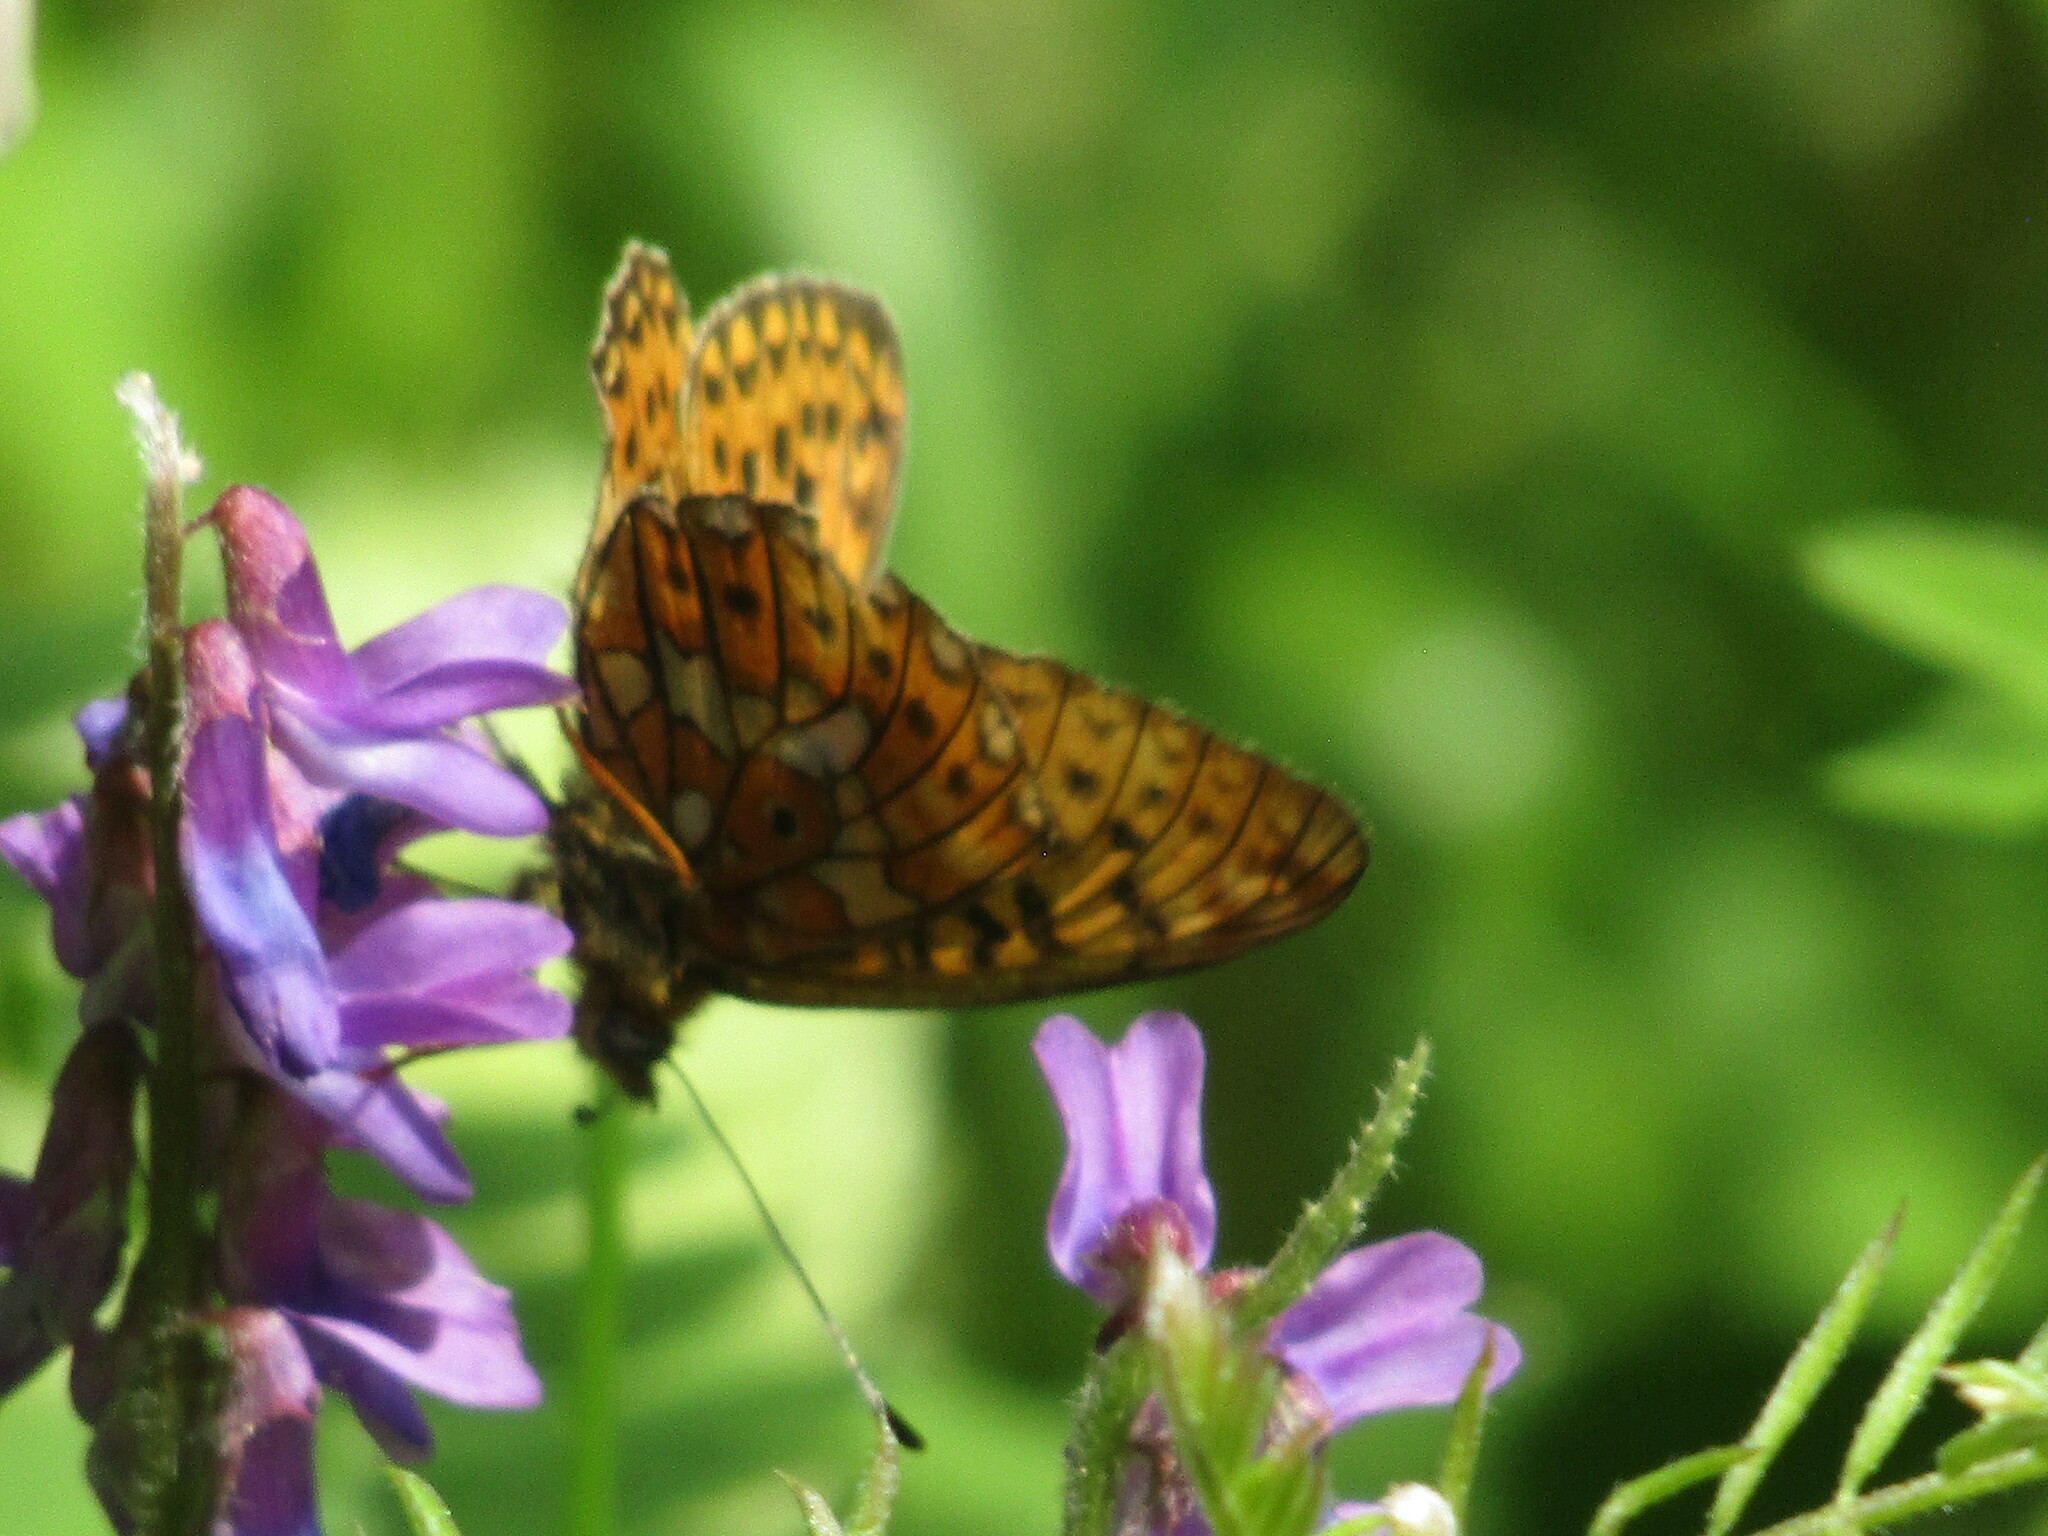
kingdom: Animalia
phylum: Arthropoda
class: Insecta
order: Lepidoptera
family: Nymphalidae
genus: Clossiana
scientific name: Clossiana euphrosyne
